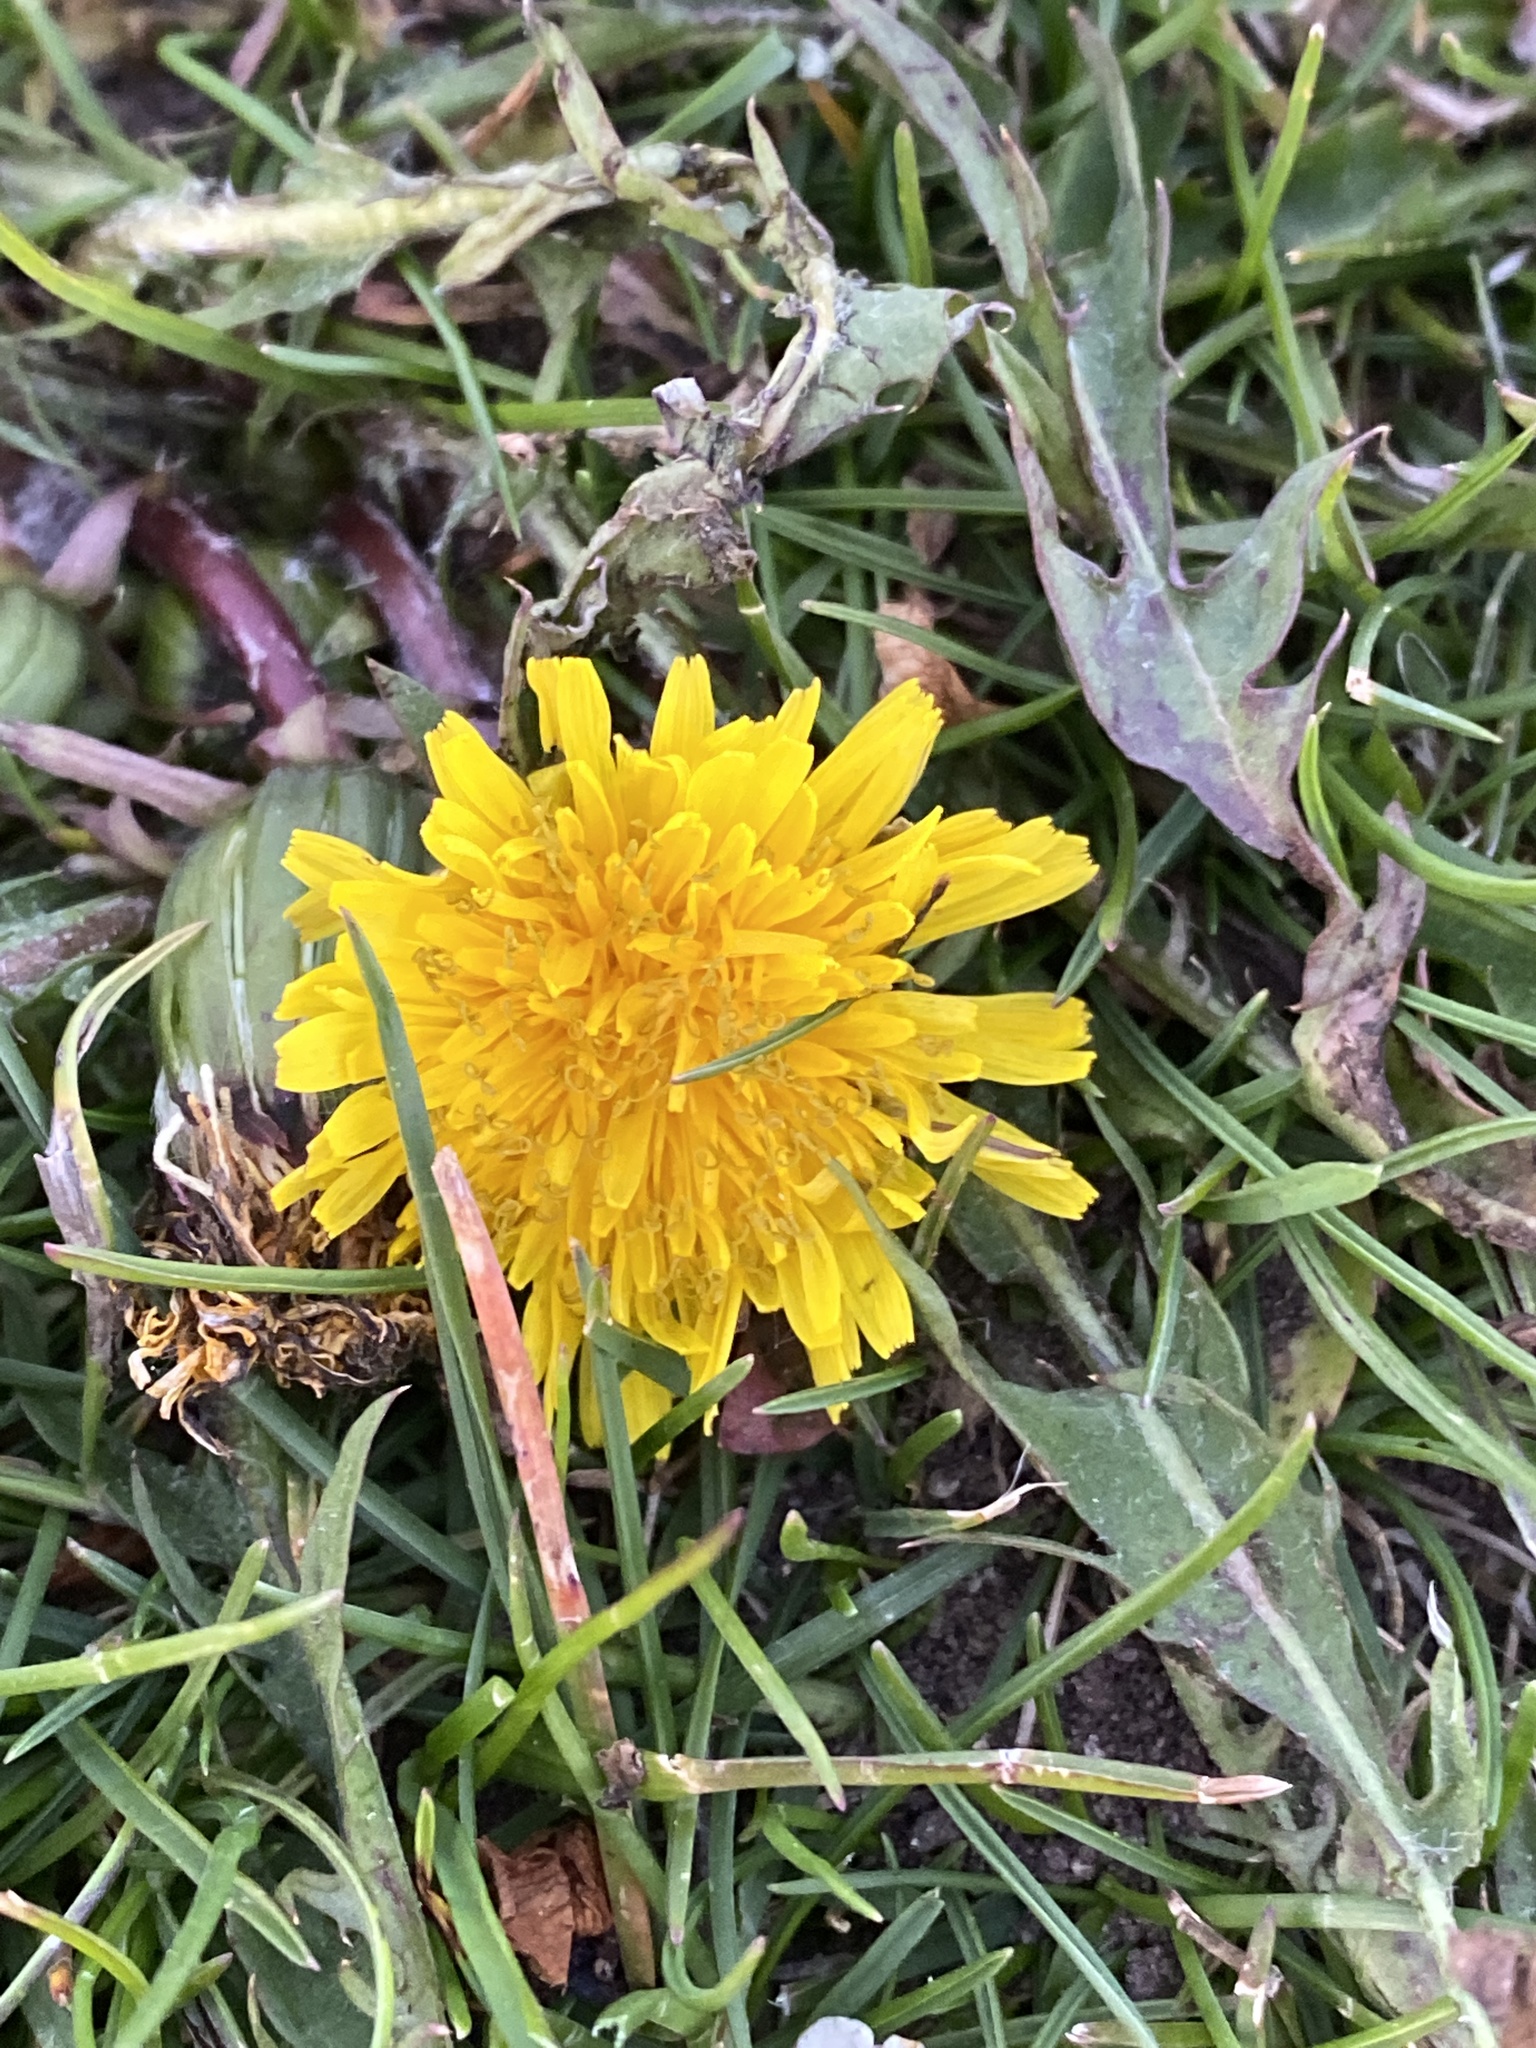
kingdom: Plantae
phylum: Tracheophyta
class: Magnoliopsida
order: Asterales
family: Asteraceae
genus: Taraxacum
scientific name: Taraxacum officinale
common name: Common dandelion
